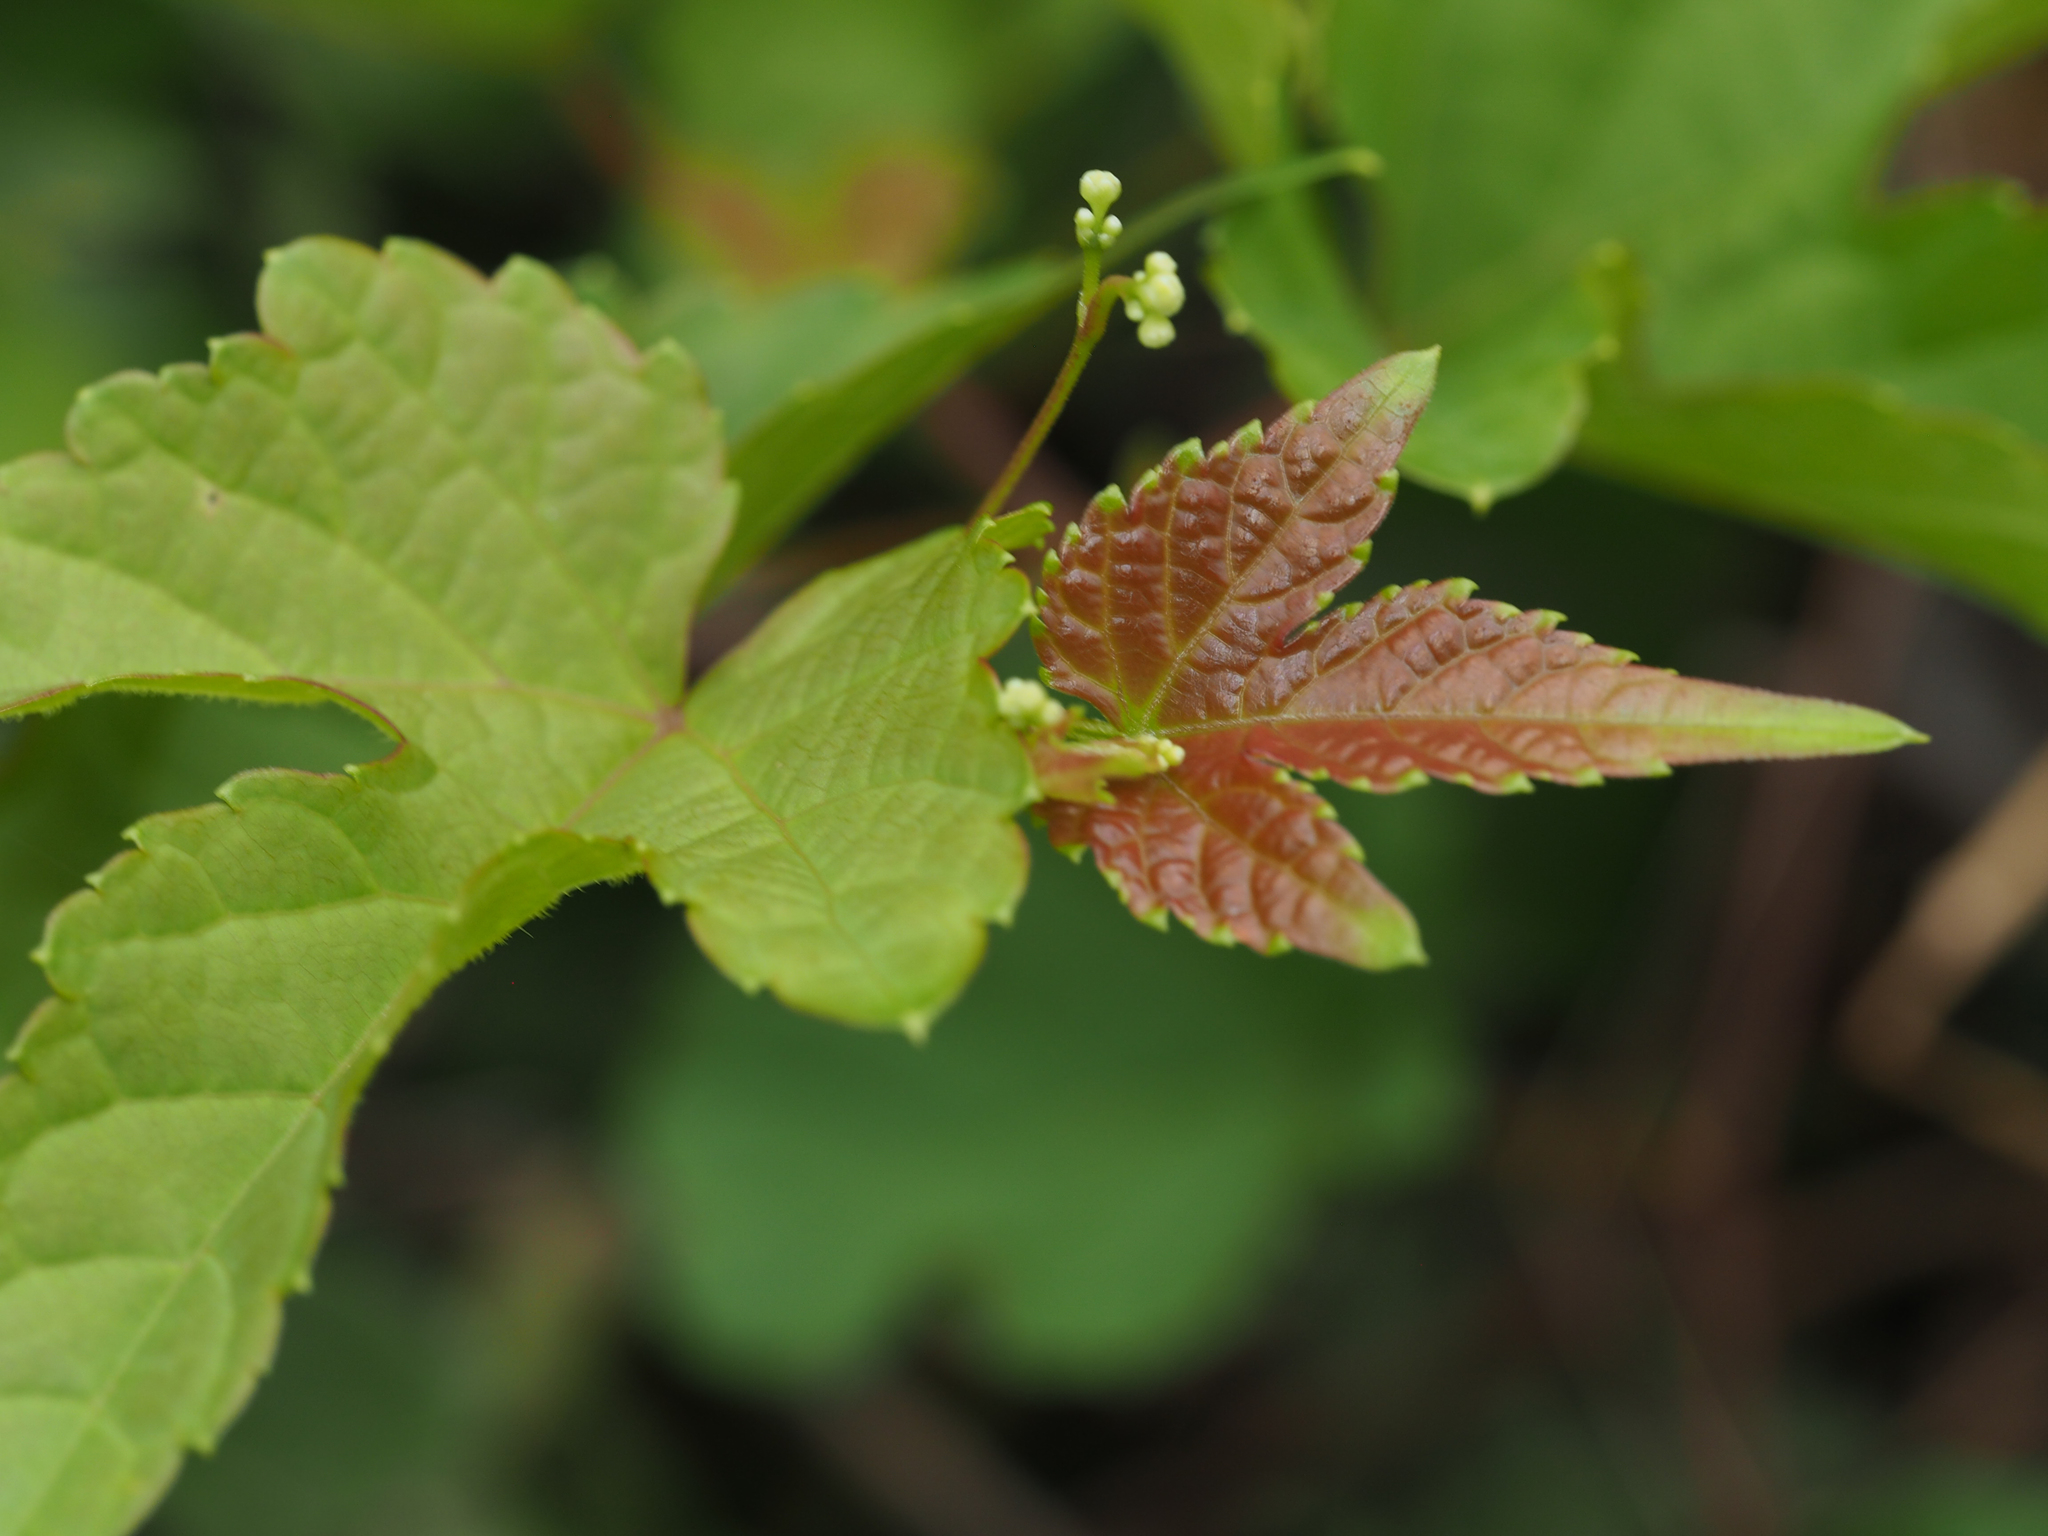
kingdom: Plantae
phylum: Tracheophyta
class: Magnoliopsida
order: Vitales
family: Vitaceae
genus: Ampelopsis
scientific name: Ampelopsis glandulosa
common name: Amur peppervine
